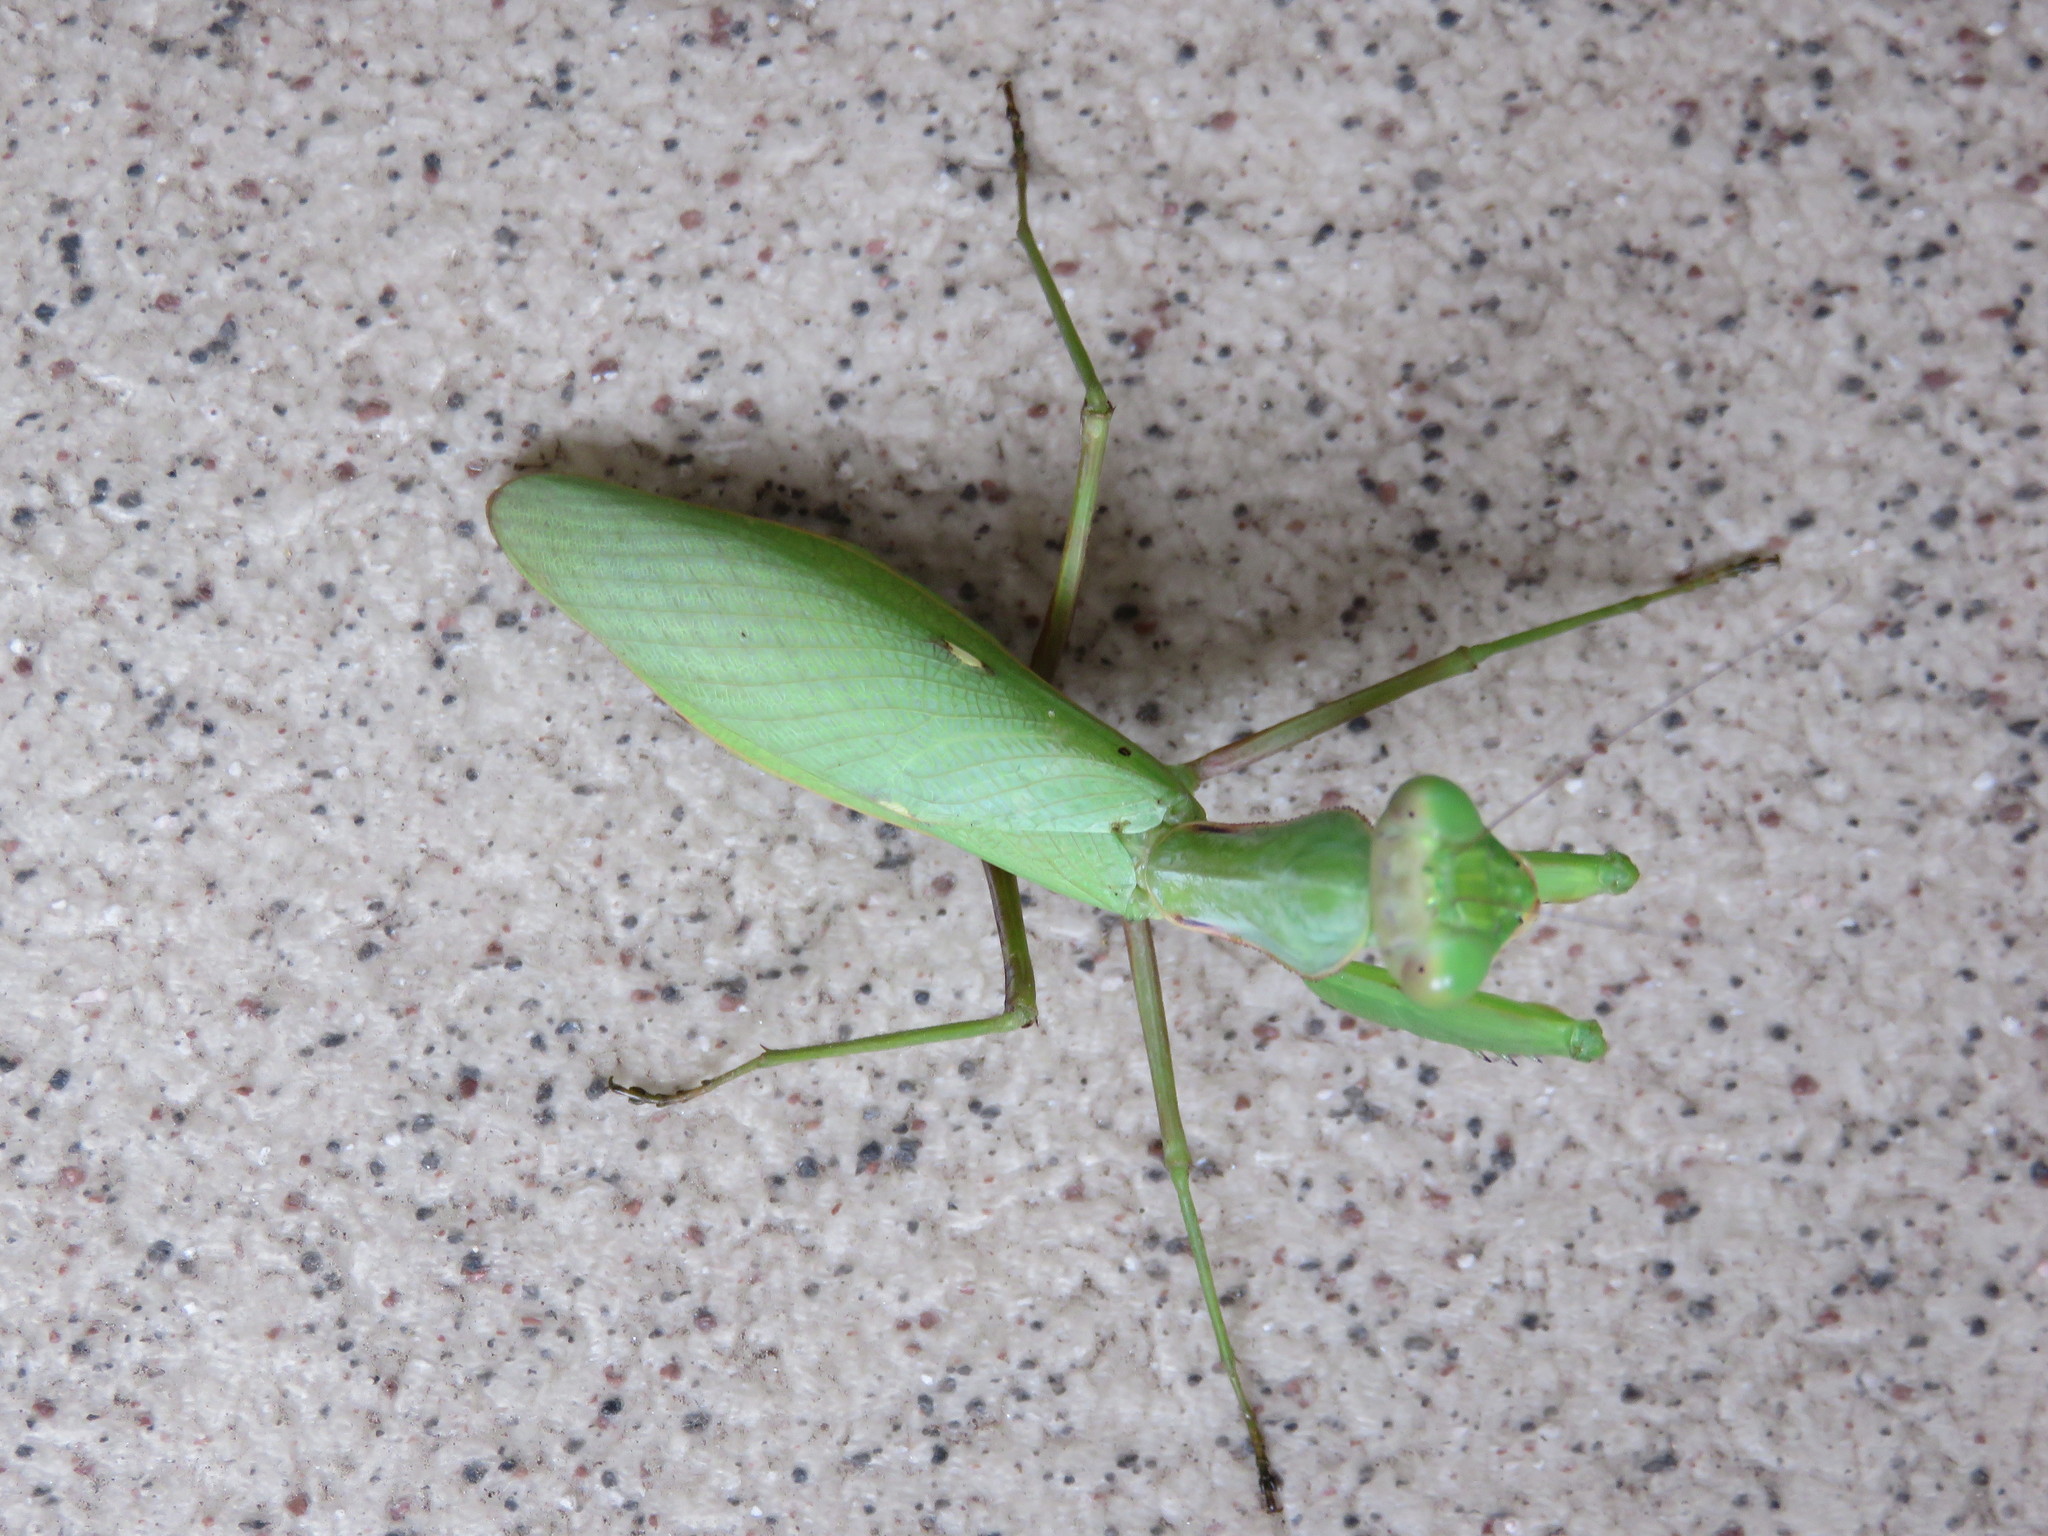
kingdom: Animalia
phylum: Arthropoda
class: Insecta
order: Mantodea
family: Mantidae
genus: Hierodula
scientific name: Hierodula patellifera
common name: Asian mantis
